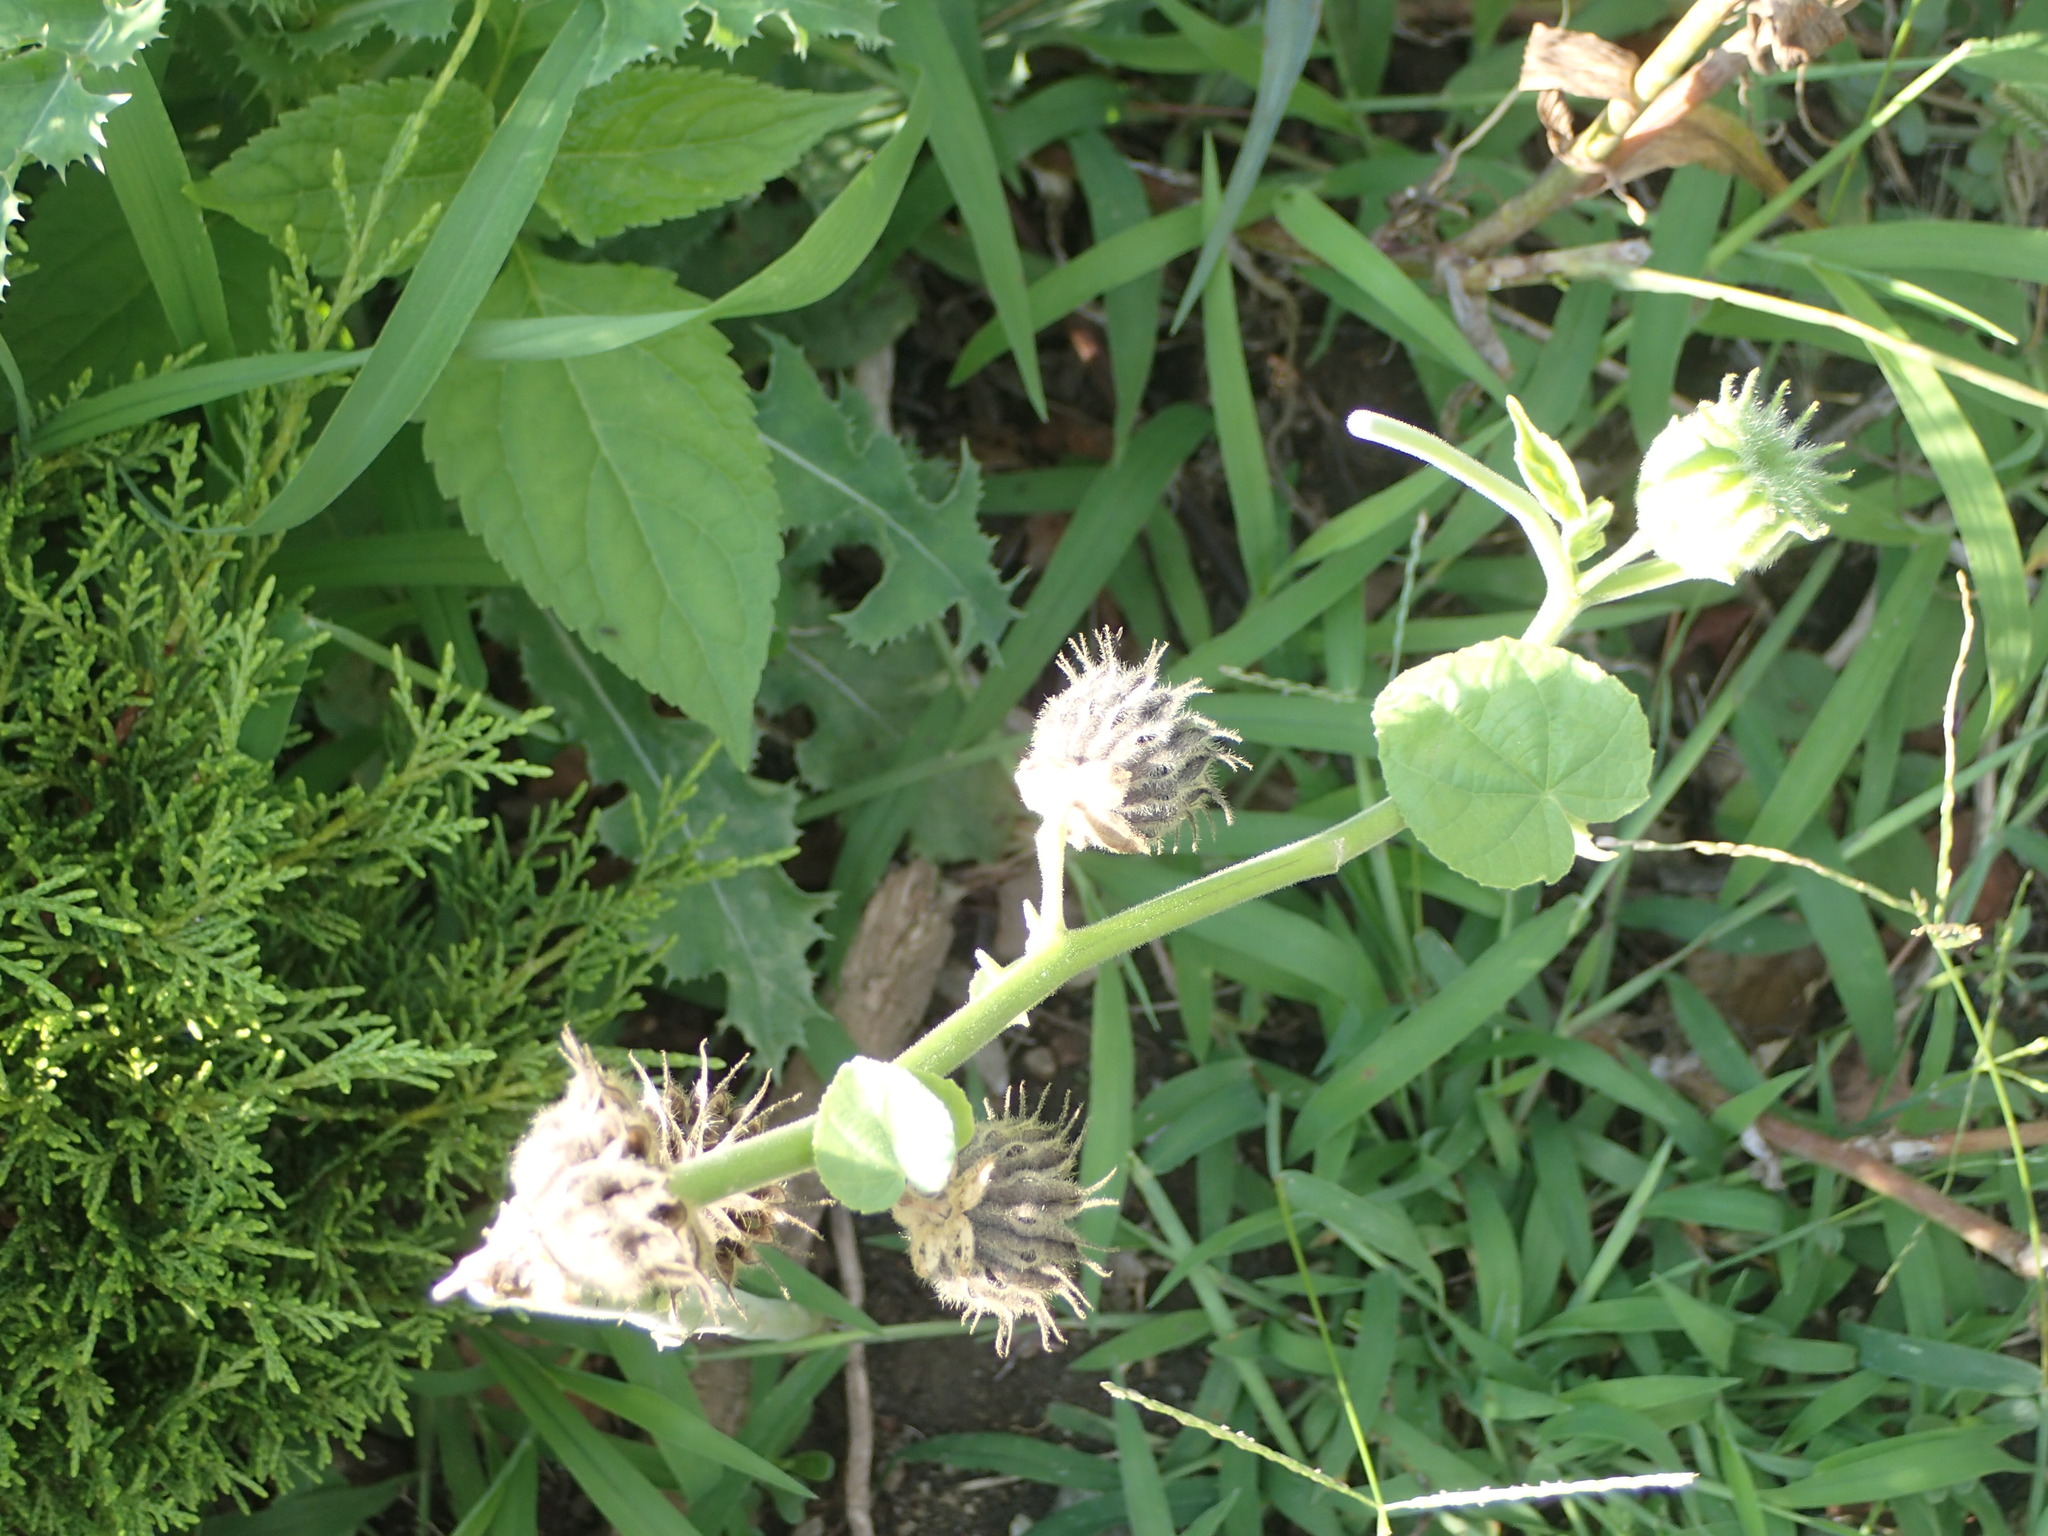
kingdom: Plantae
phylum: Tracheophyta
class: Magnoliopsida
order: Malvales
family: Malvaceae
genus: Abutilon
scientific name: Abutilon theophrasti
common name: Velvetleaf
